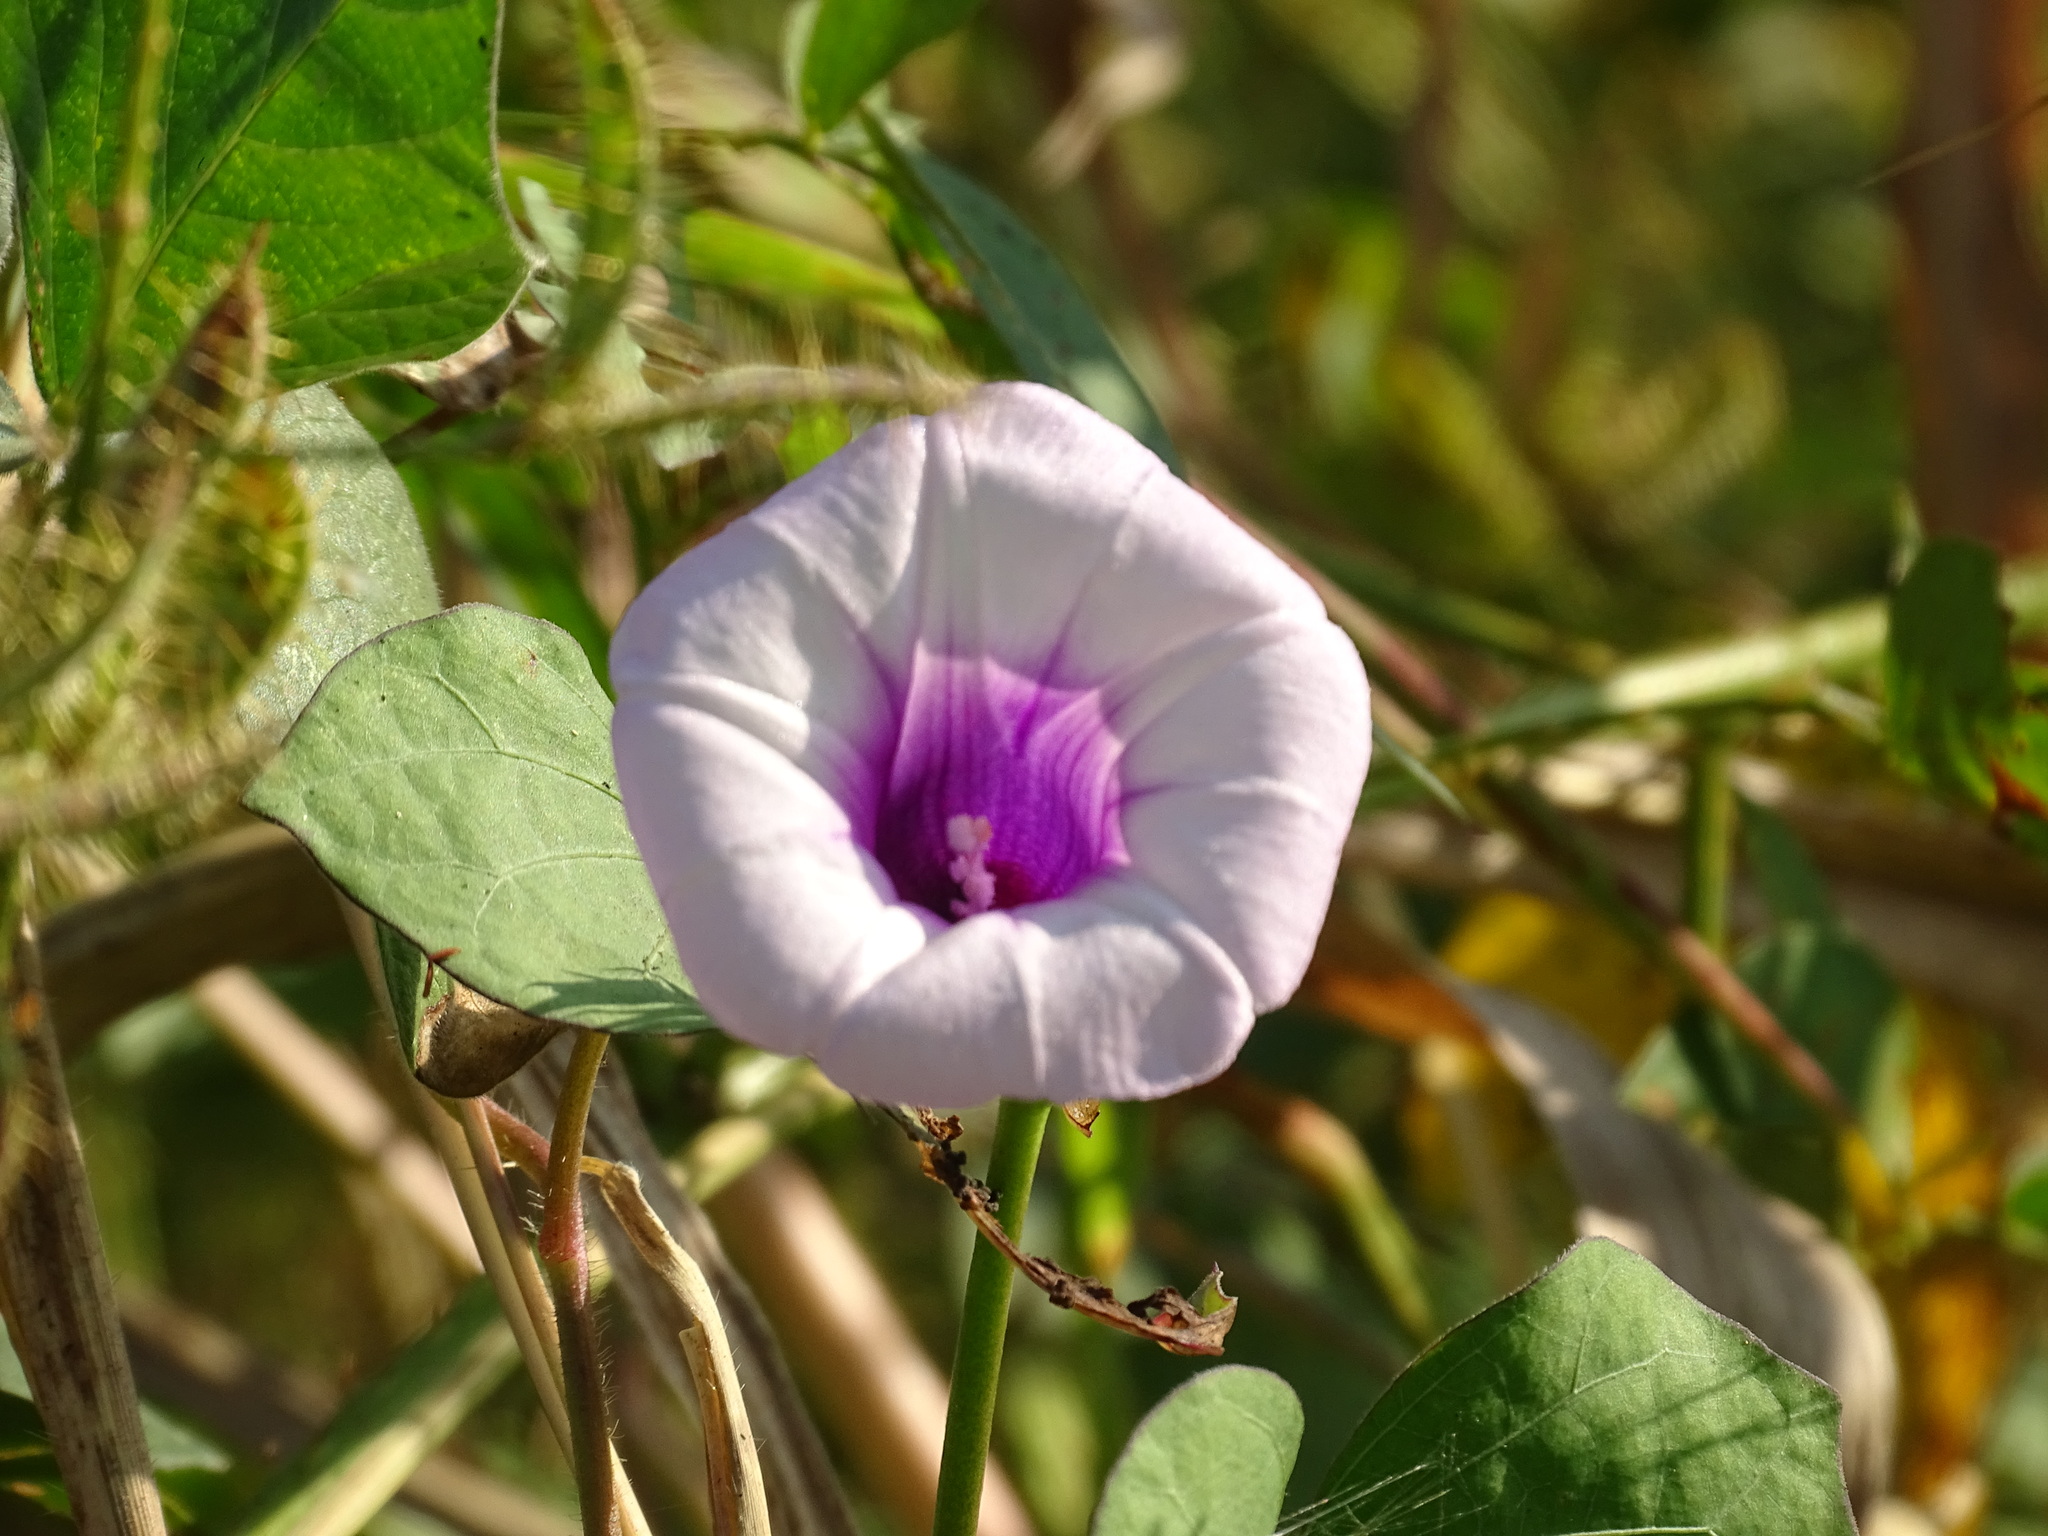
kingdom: Plantae
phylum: Tracheophyta
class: Magnoliopsida
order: Solanales
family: Convolvulaceae
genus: Ipomoea
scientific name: Ipomoea batatas
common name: Sweet-potato
